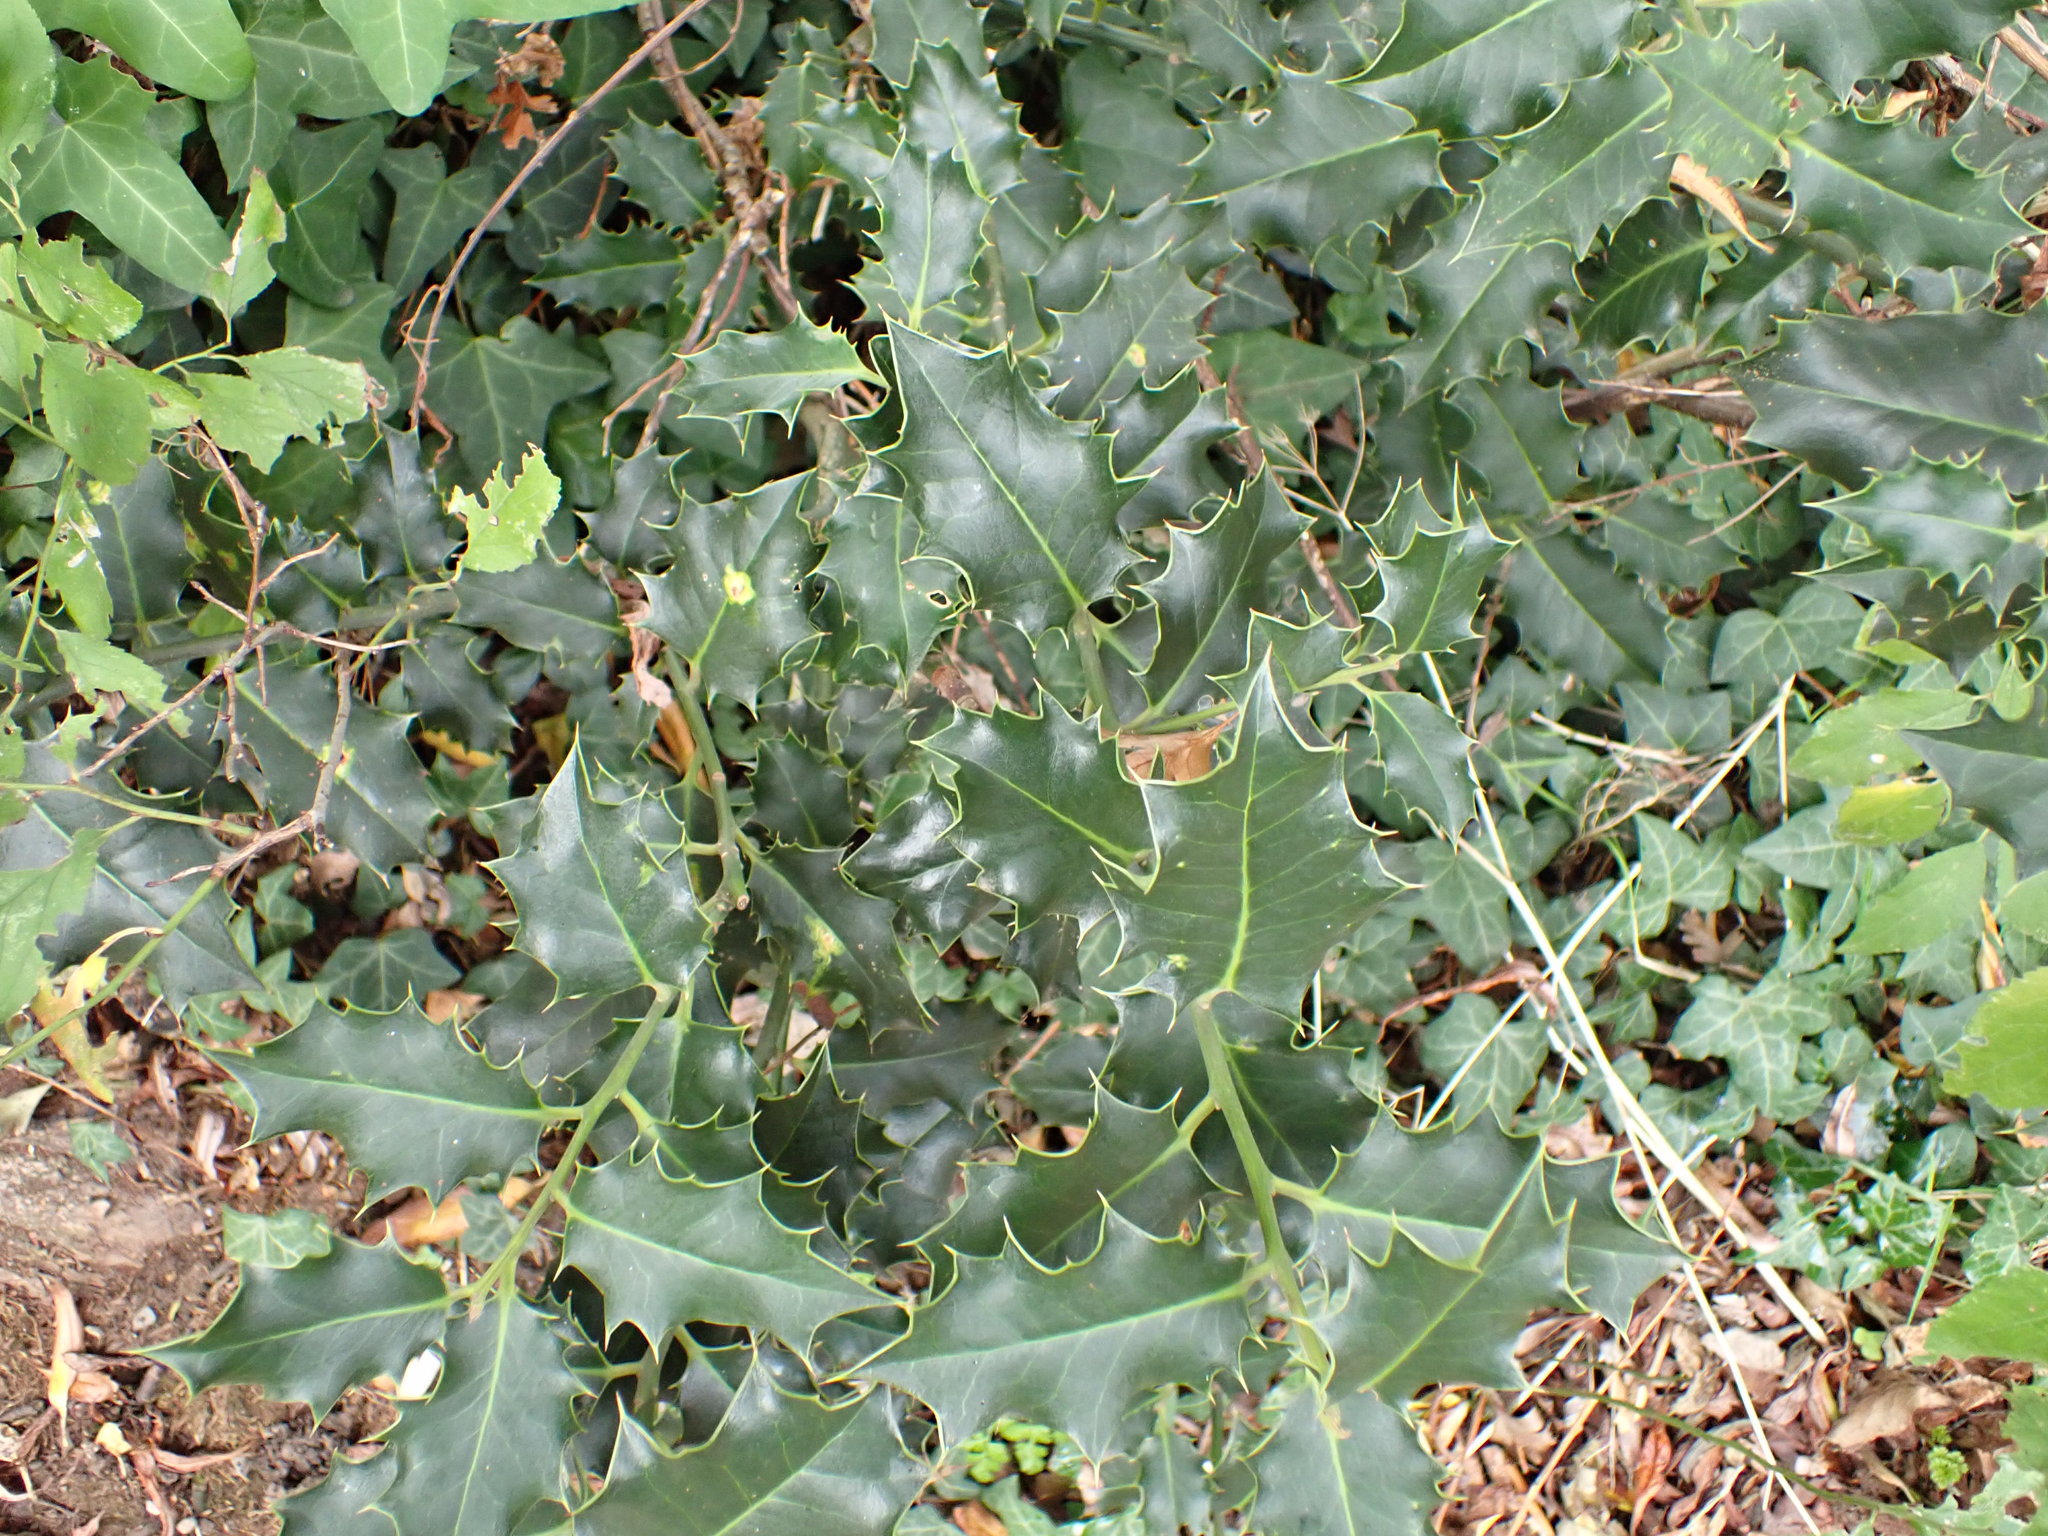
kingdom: Plantae
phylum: Tracheophyta
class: Magnoliopsida
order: Aquifoliales
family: Aquifoliaceae
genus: Ilex
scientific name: Ilex aquifolium
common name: English holly
